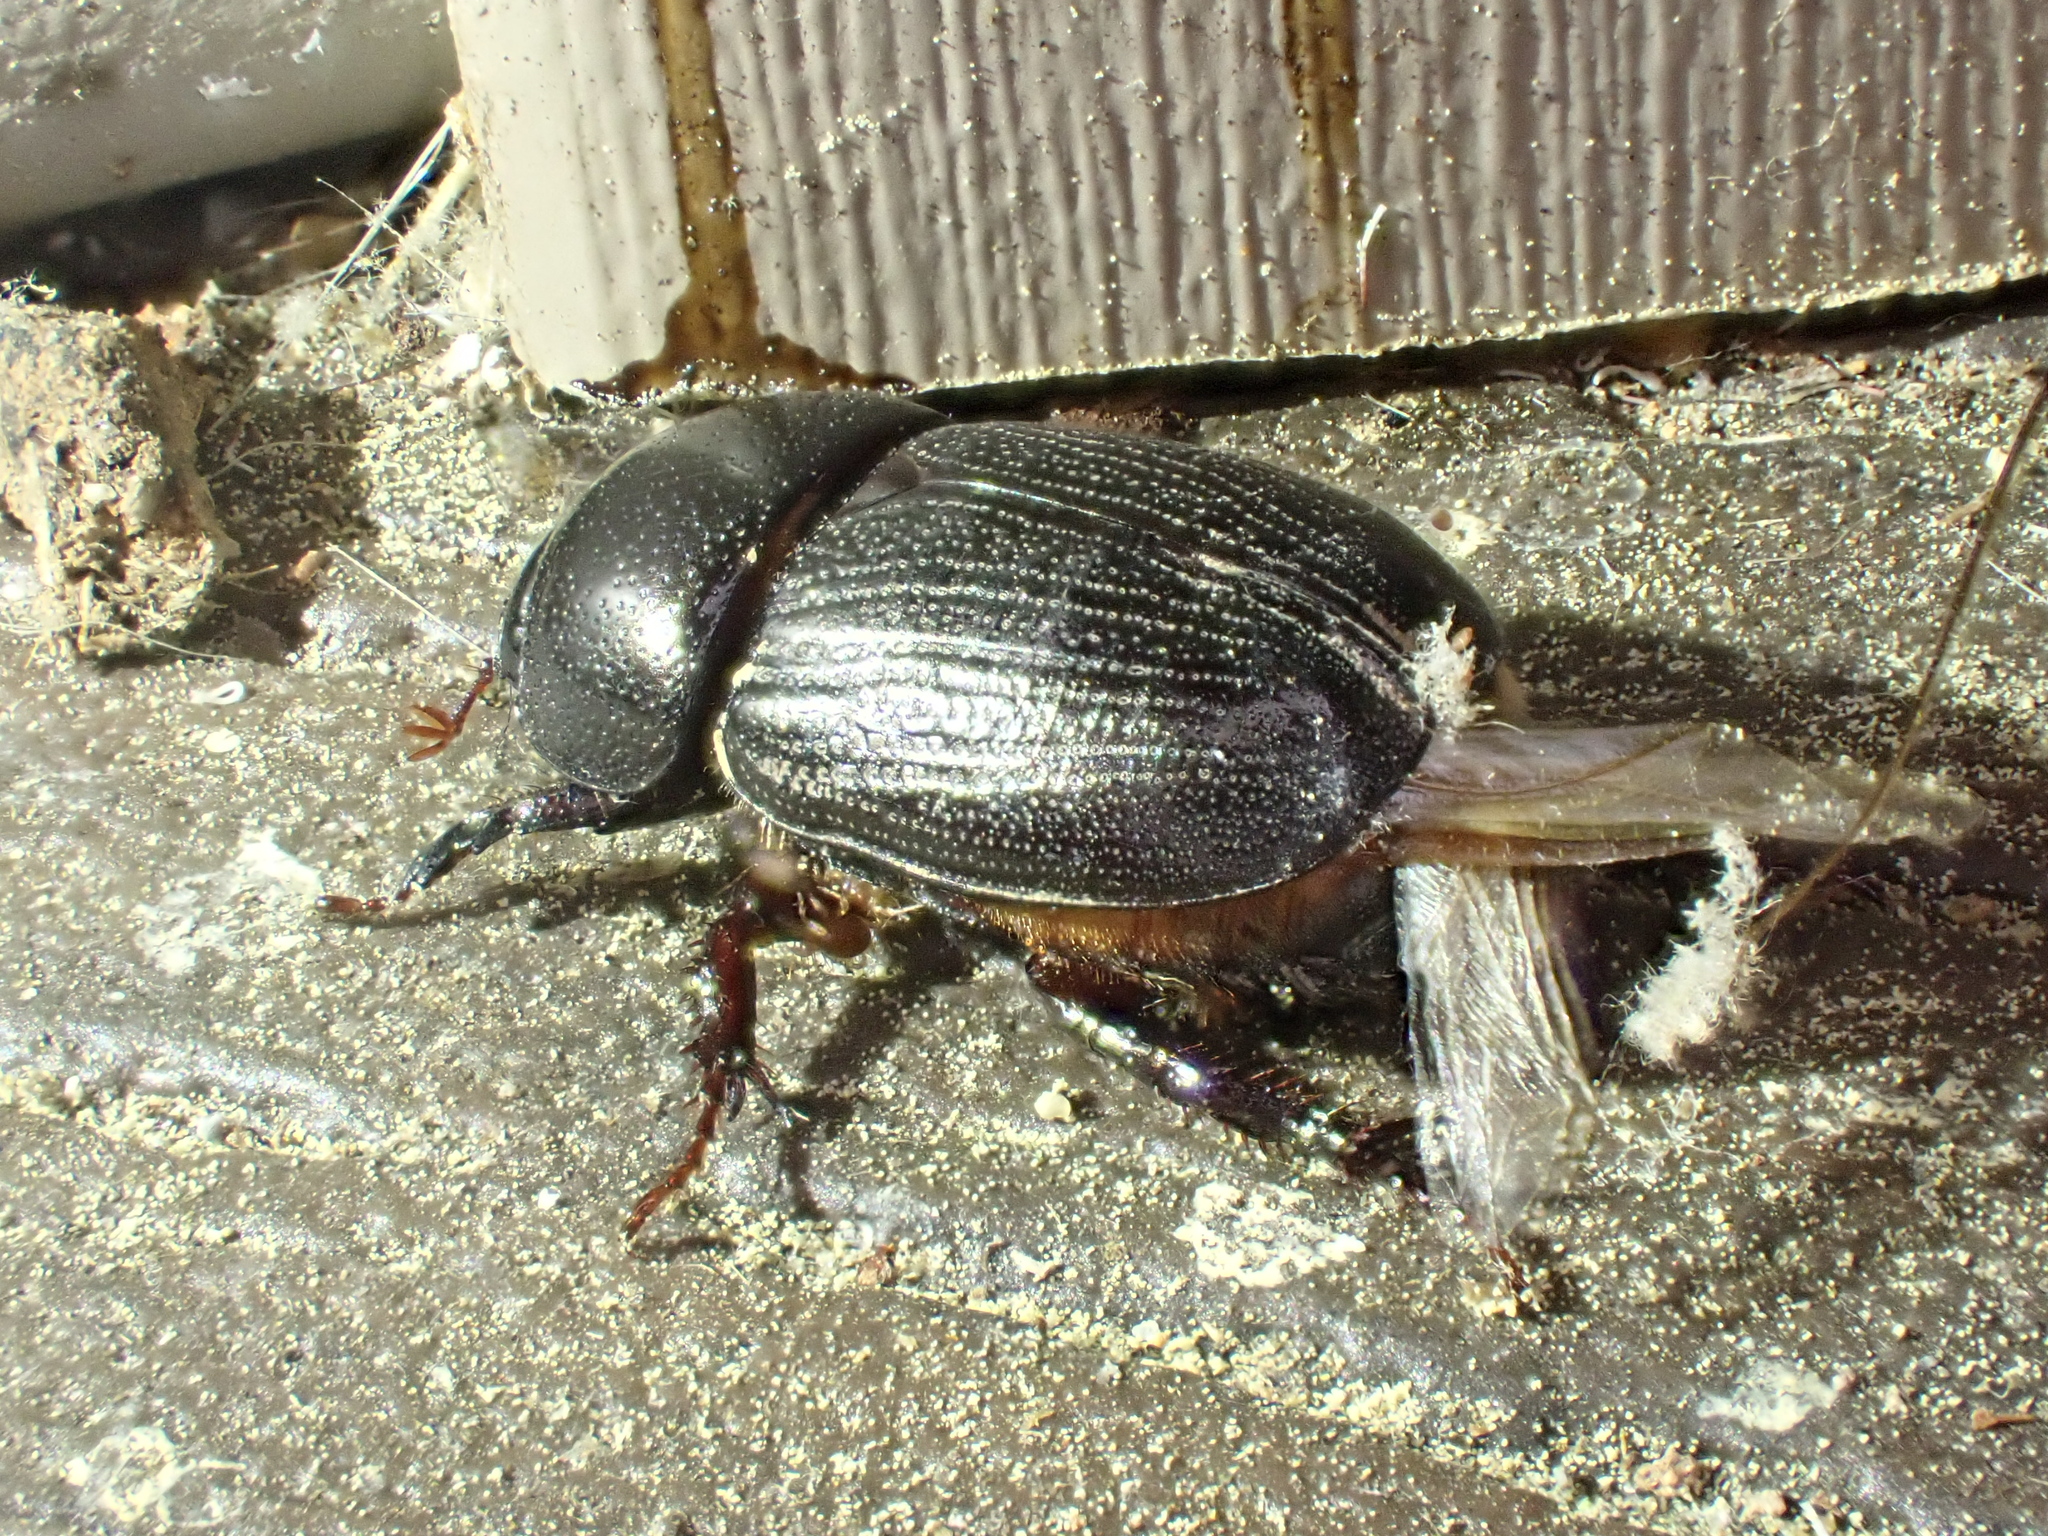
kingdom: Animalia
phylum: Arthropoda
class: Insecta
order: Coleoptera
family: Scarabaeidae
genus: Euetheola
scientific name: Euetheola humilis
